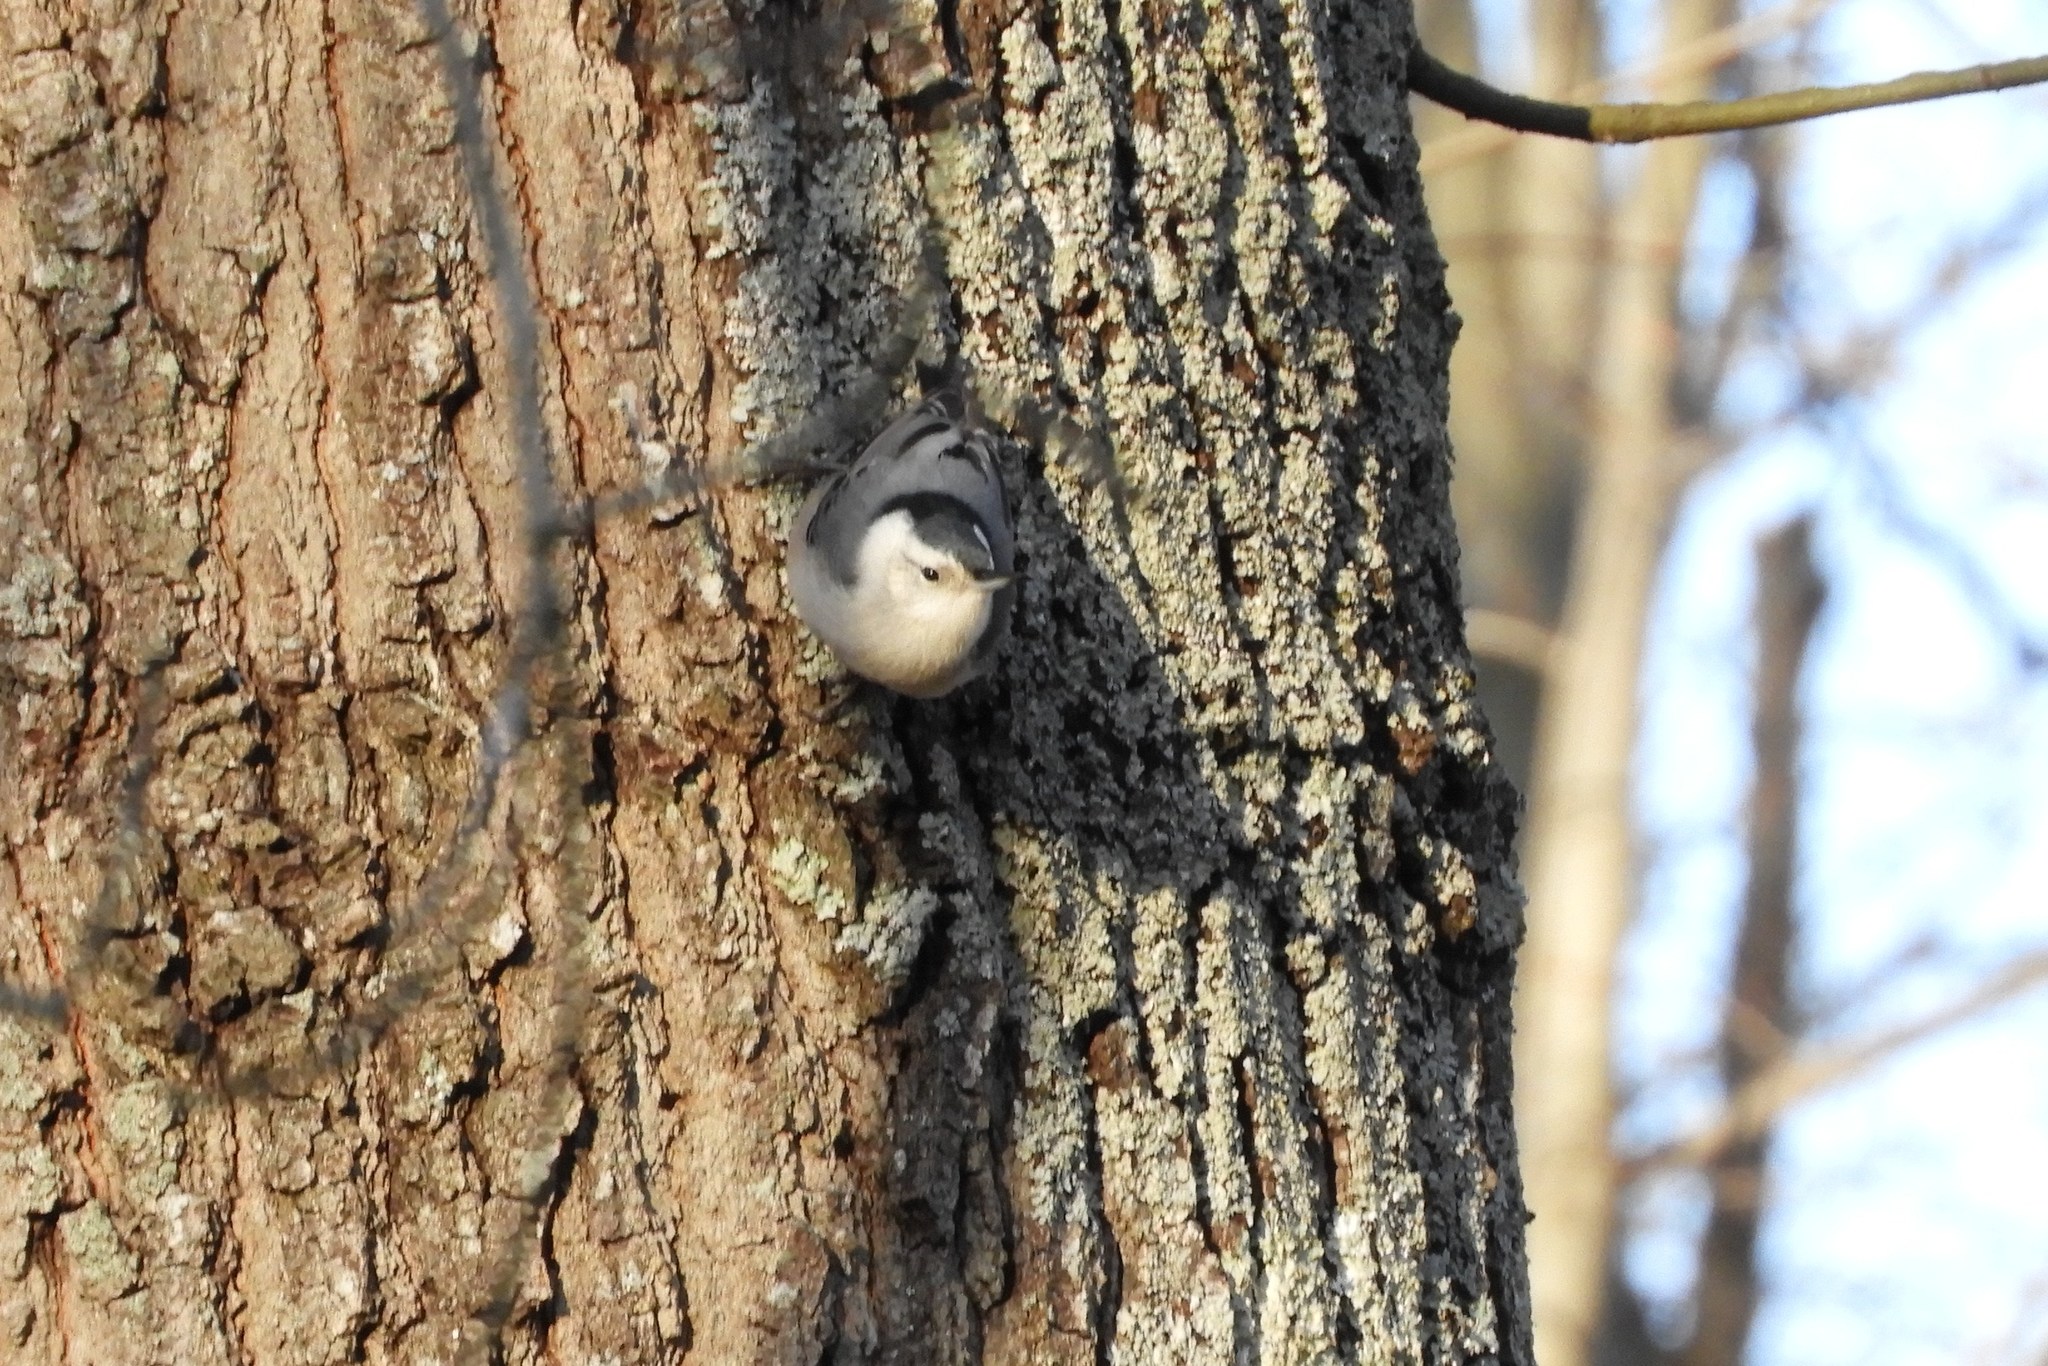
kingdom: Animalia
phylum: Chordata
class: Aves
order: Passeriformes
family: Sittidae
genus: Sitta
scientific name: Sitta carolinensis
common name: White-breasted nuthatch
